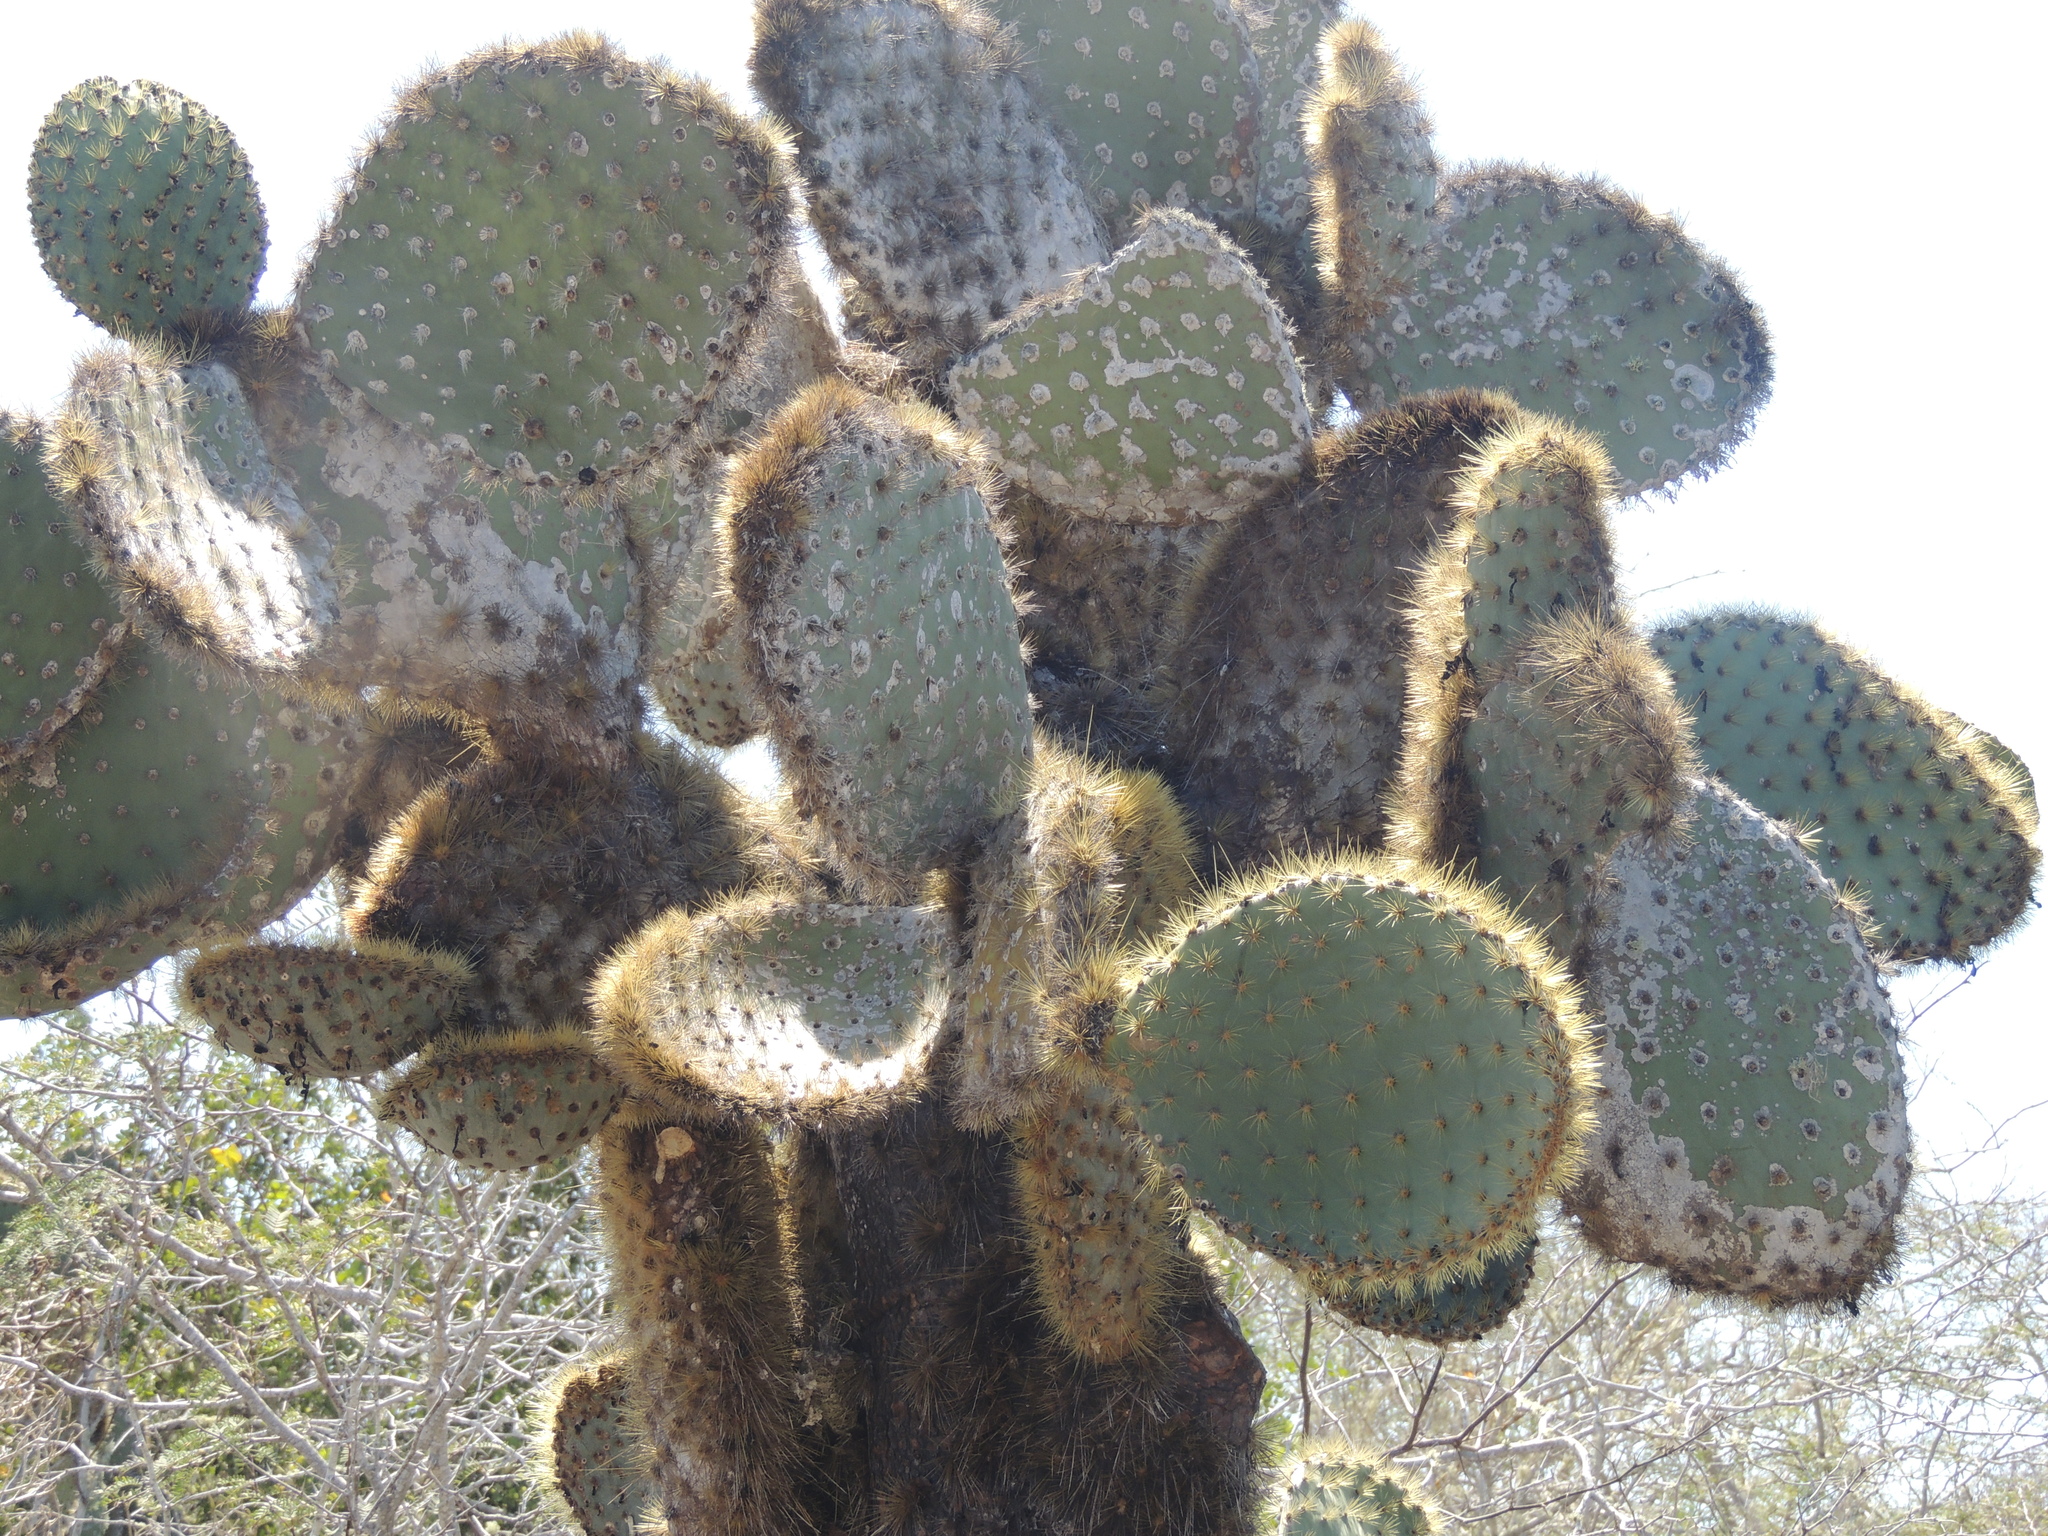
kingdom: Plantae
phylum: Tracheophyta
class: Magnoliopsida
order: Caryophyllales
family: Cactaceae
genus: Opuntia
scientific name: Opuntia galapageia
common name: Galápagos prickly pear
